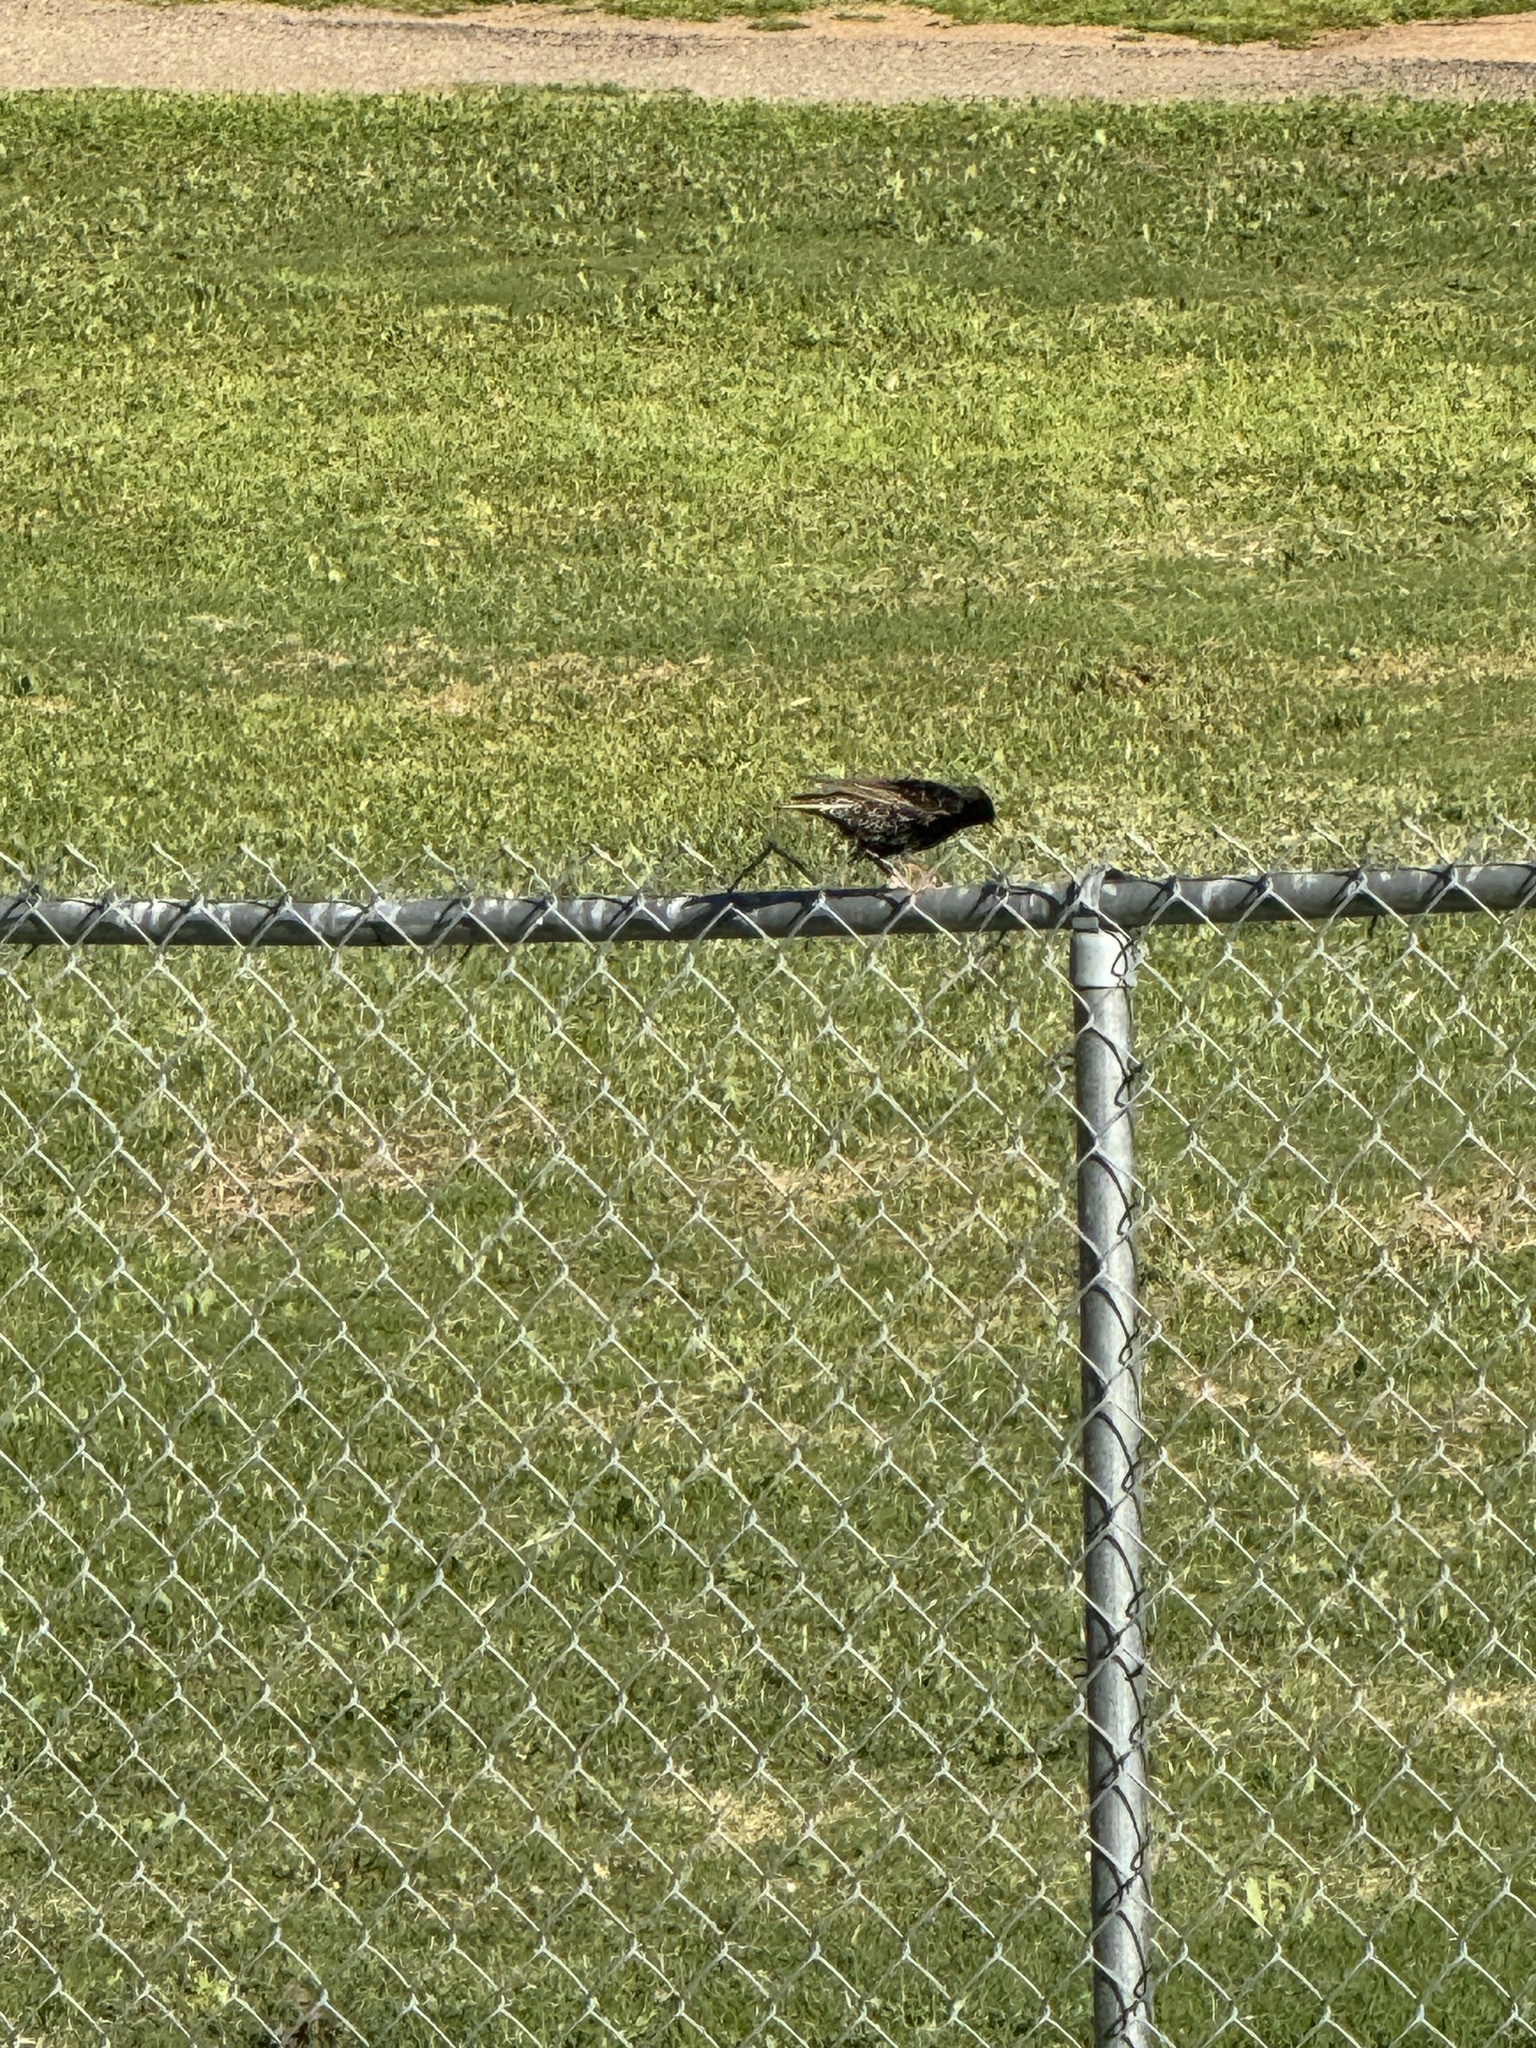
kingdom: Animalia
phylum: Chordata
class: Aves
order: Passeriformes
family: Sturnidae
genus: Sturnus
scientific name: Sturnus vulgaris
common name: Common starling
